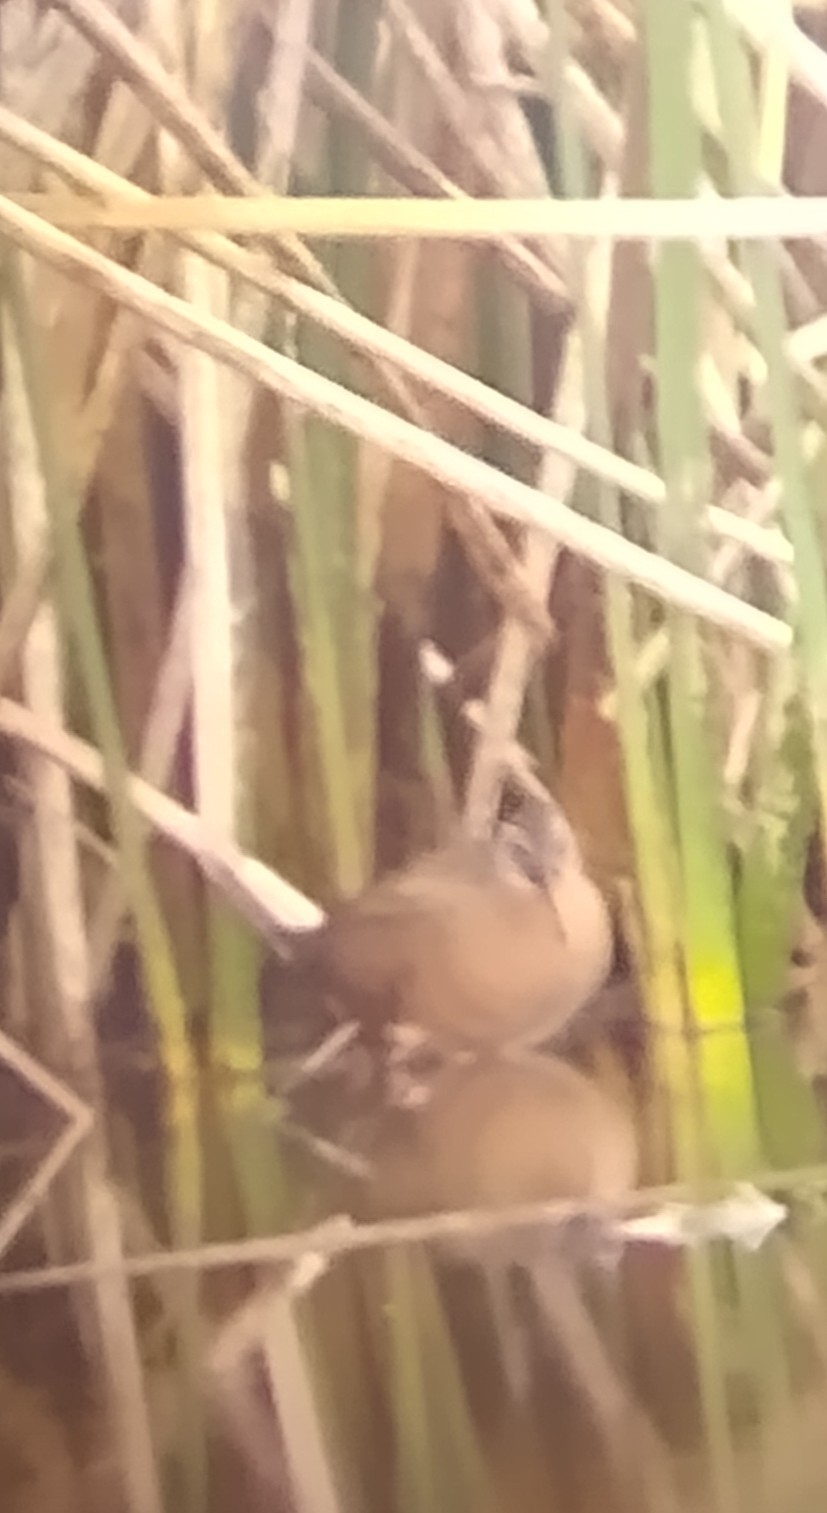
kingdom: Animalia
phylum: Chordata
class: Aves
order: Gruiformes
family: Rallidae
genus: Rallus
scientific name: Rallus limicola
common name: Virginia rail
